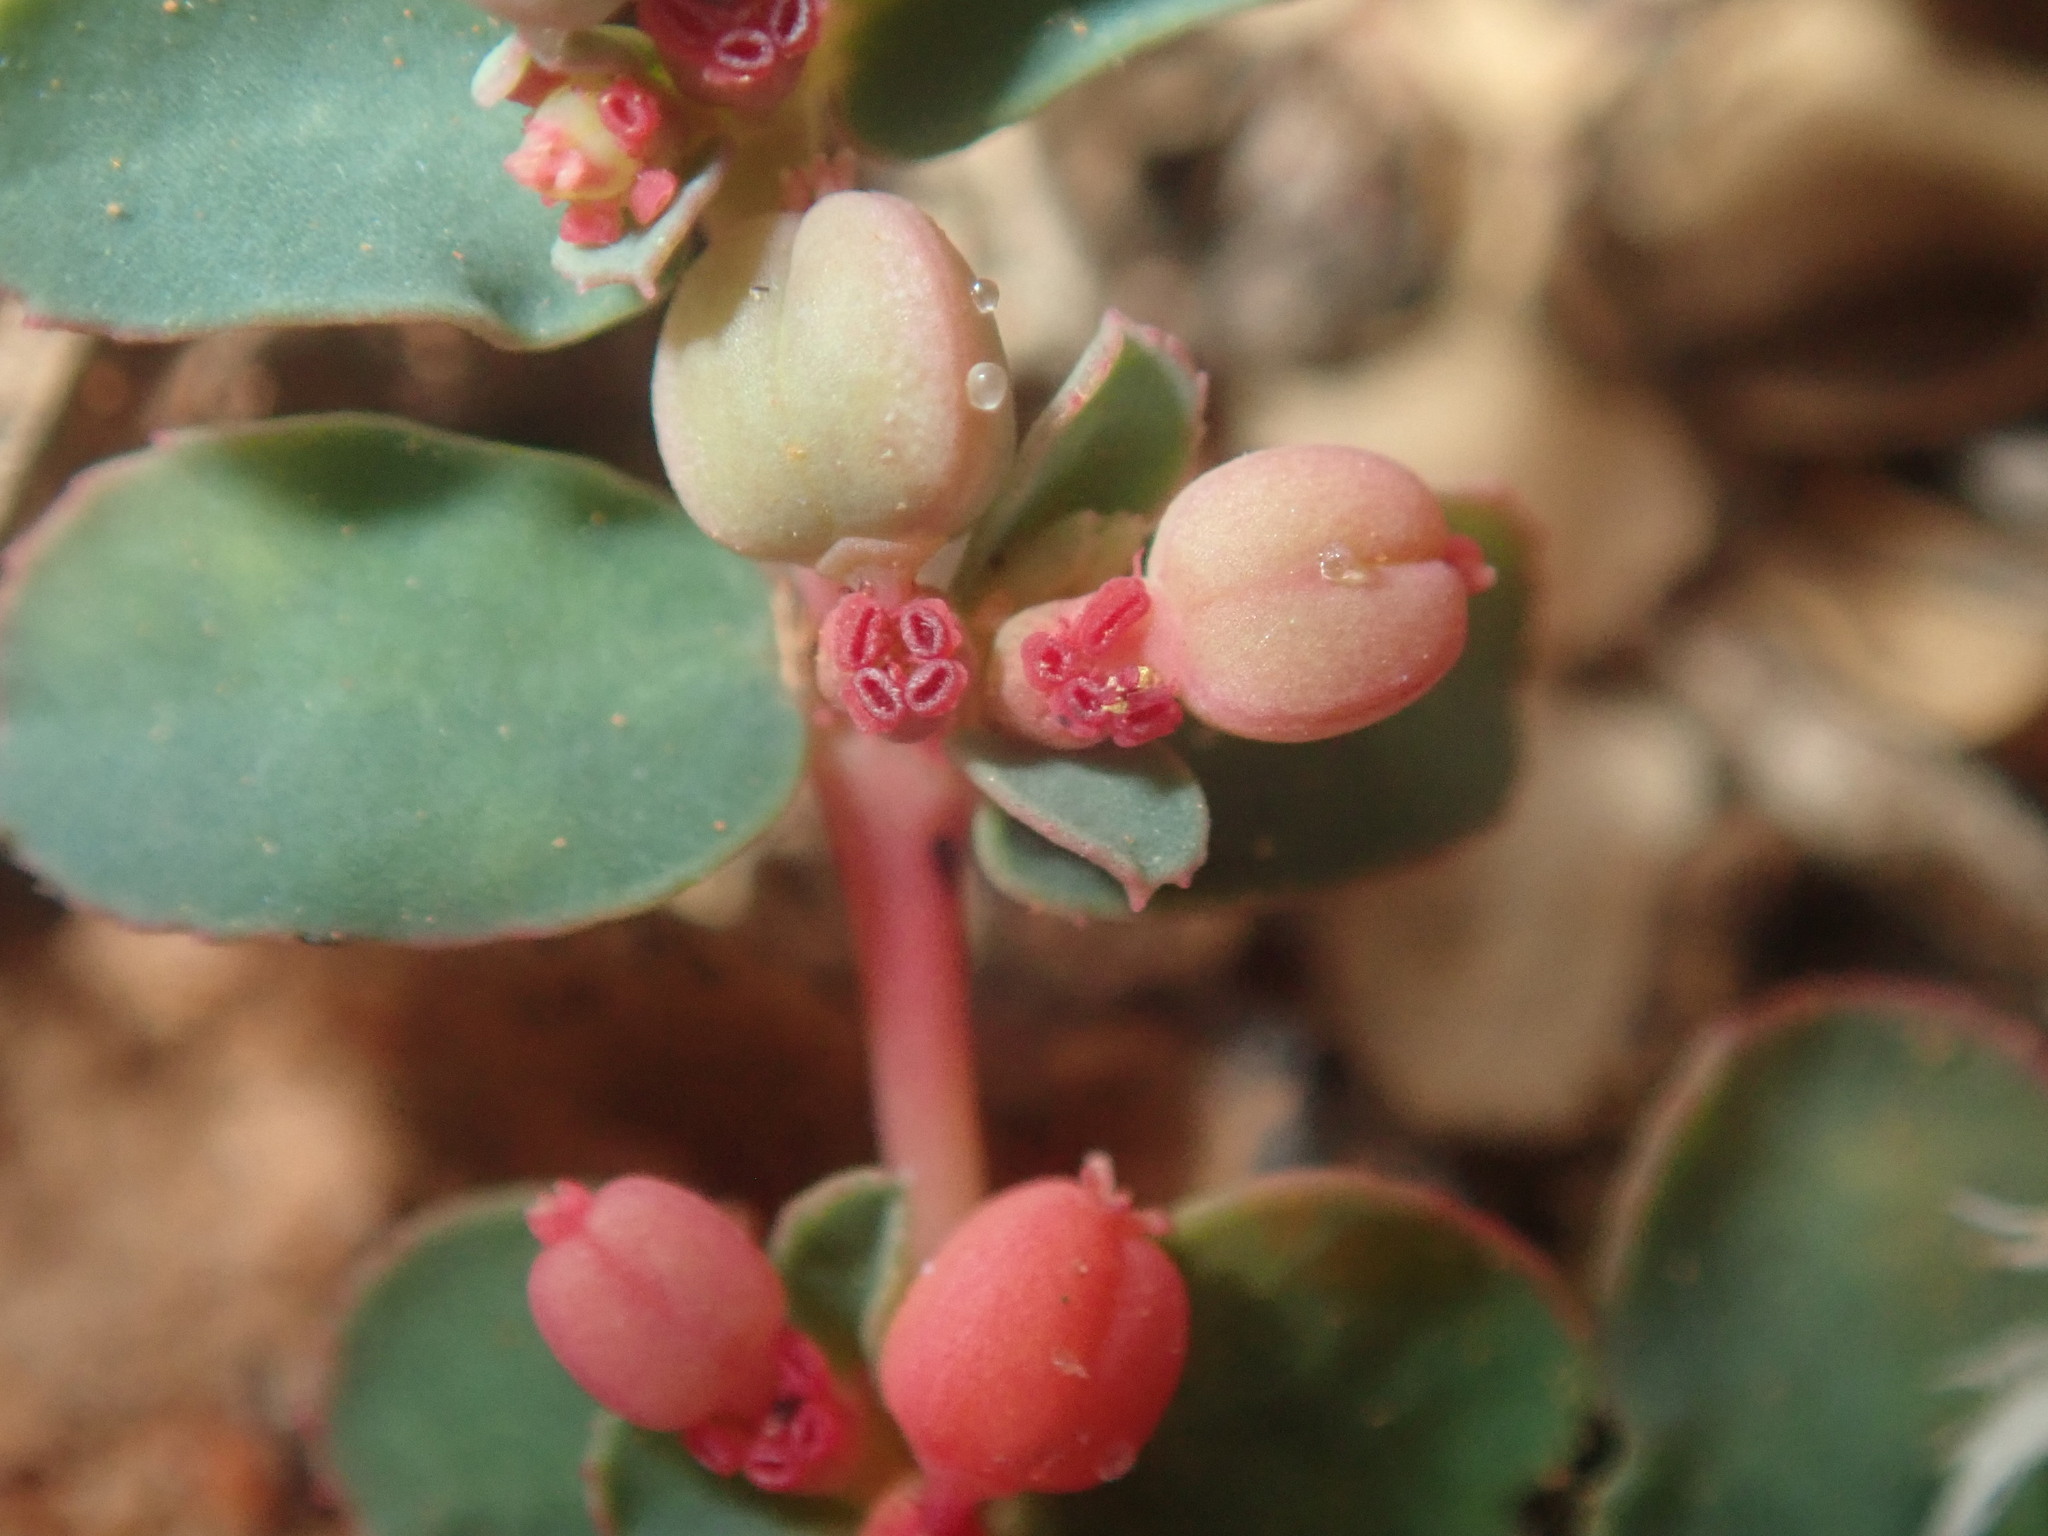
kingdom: Plantae
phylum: Tracheophyta
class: Magnoliopsida
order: Malpighiales
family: Euphorbiaceae
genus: Euphorbia
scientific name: Euphorbia drummondii
